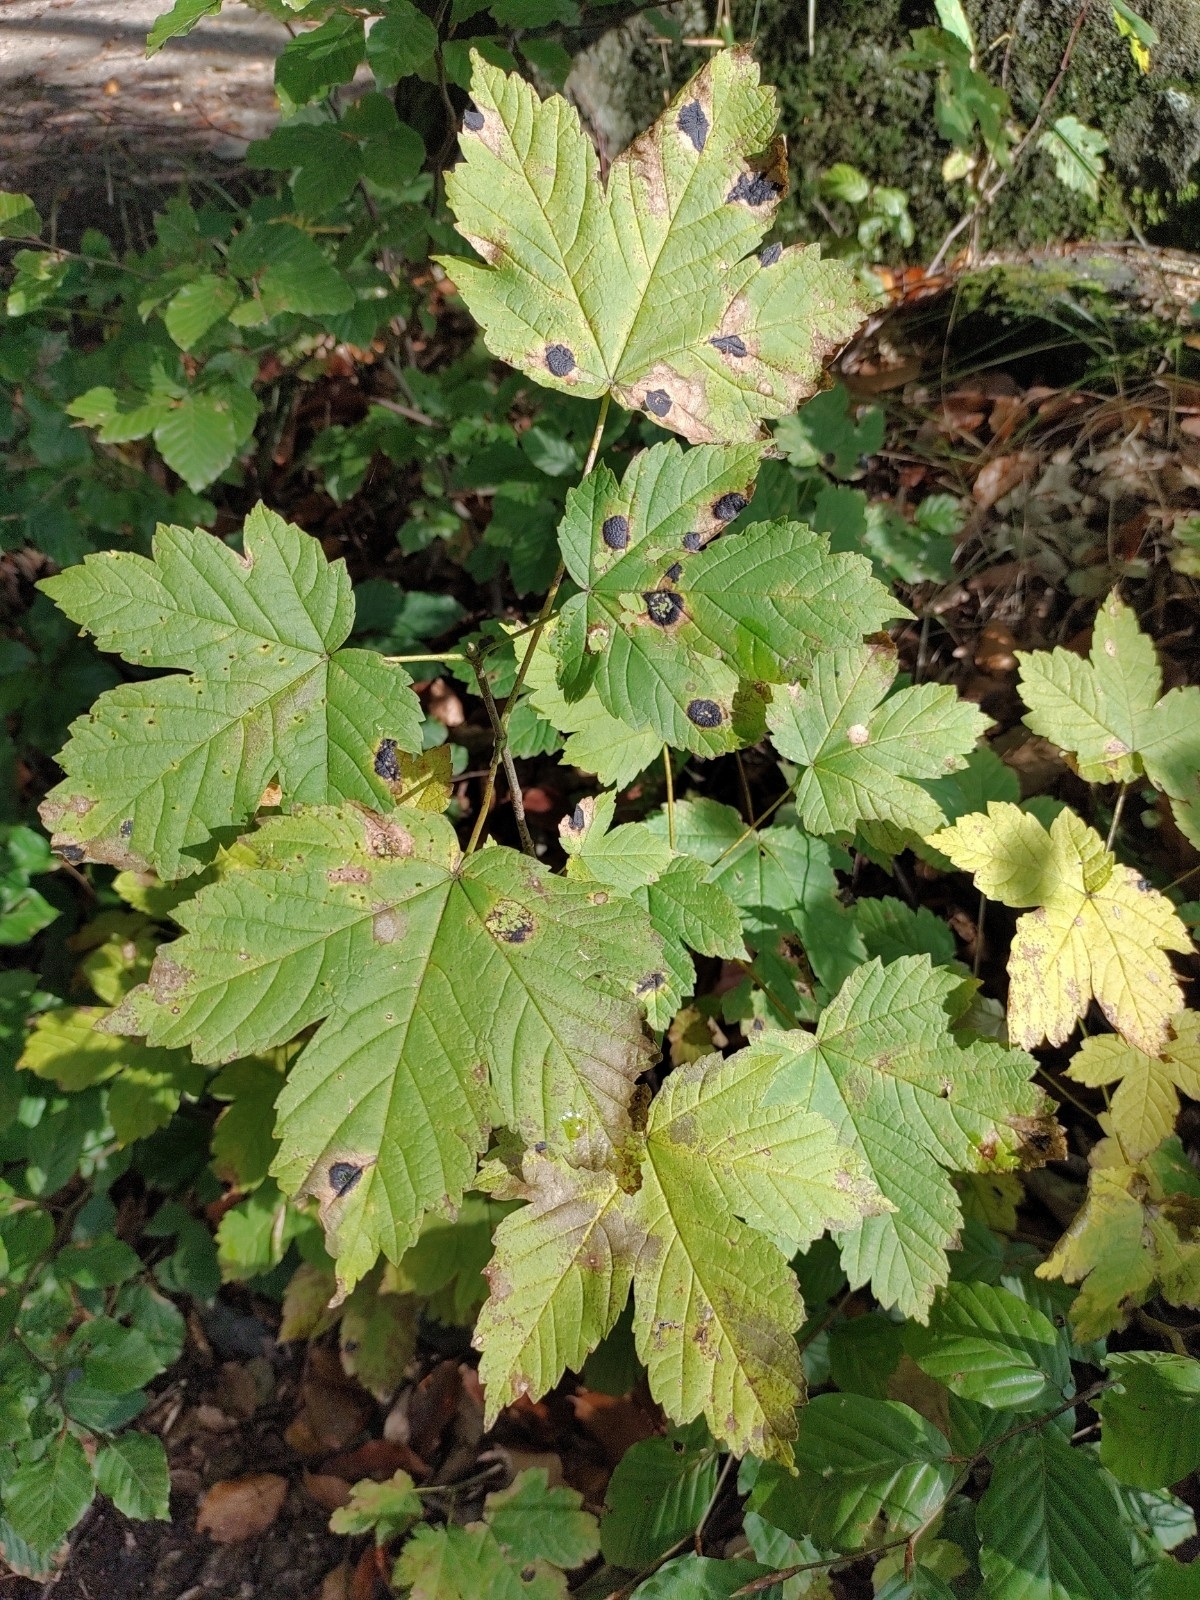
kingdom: Plantae
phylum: Tracheophyta
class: Magnoliopsida
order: Sapindales
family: Sapindaceae
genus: Acer
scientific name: Acer pseudoplatanus
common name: Sycamore
